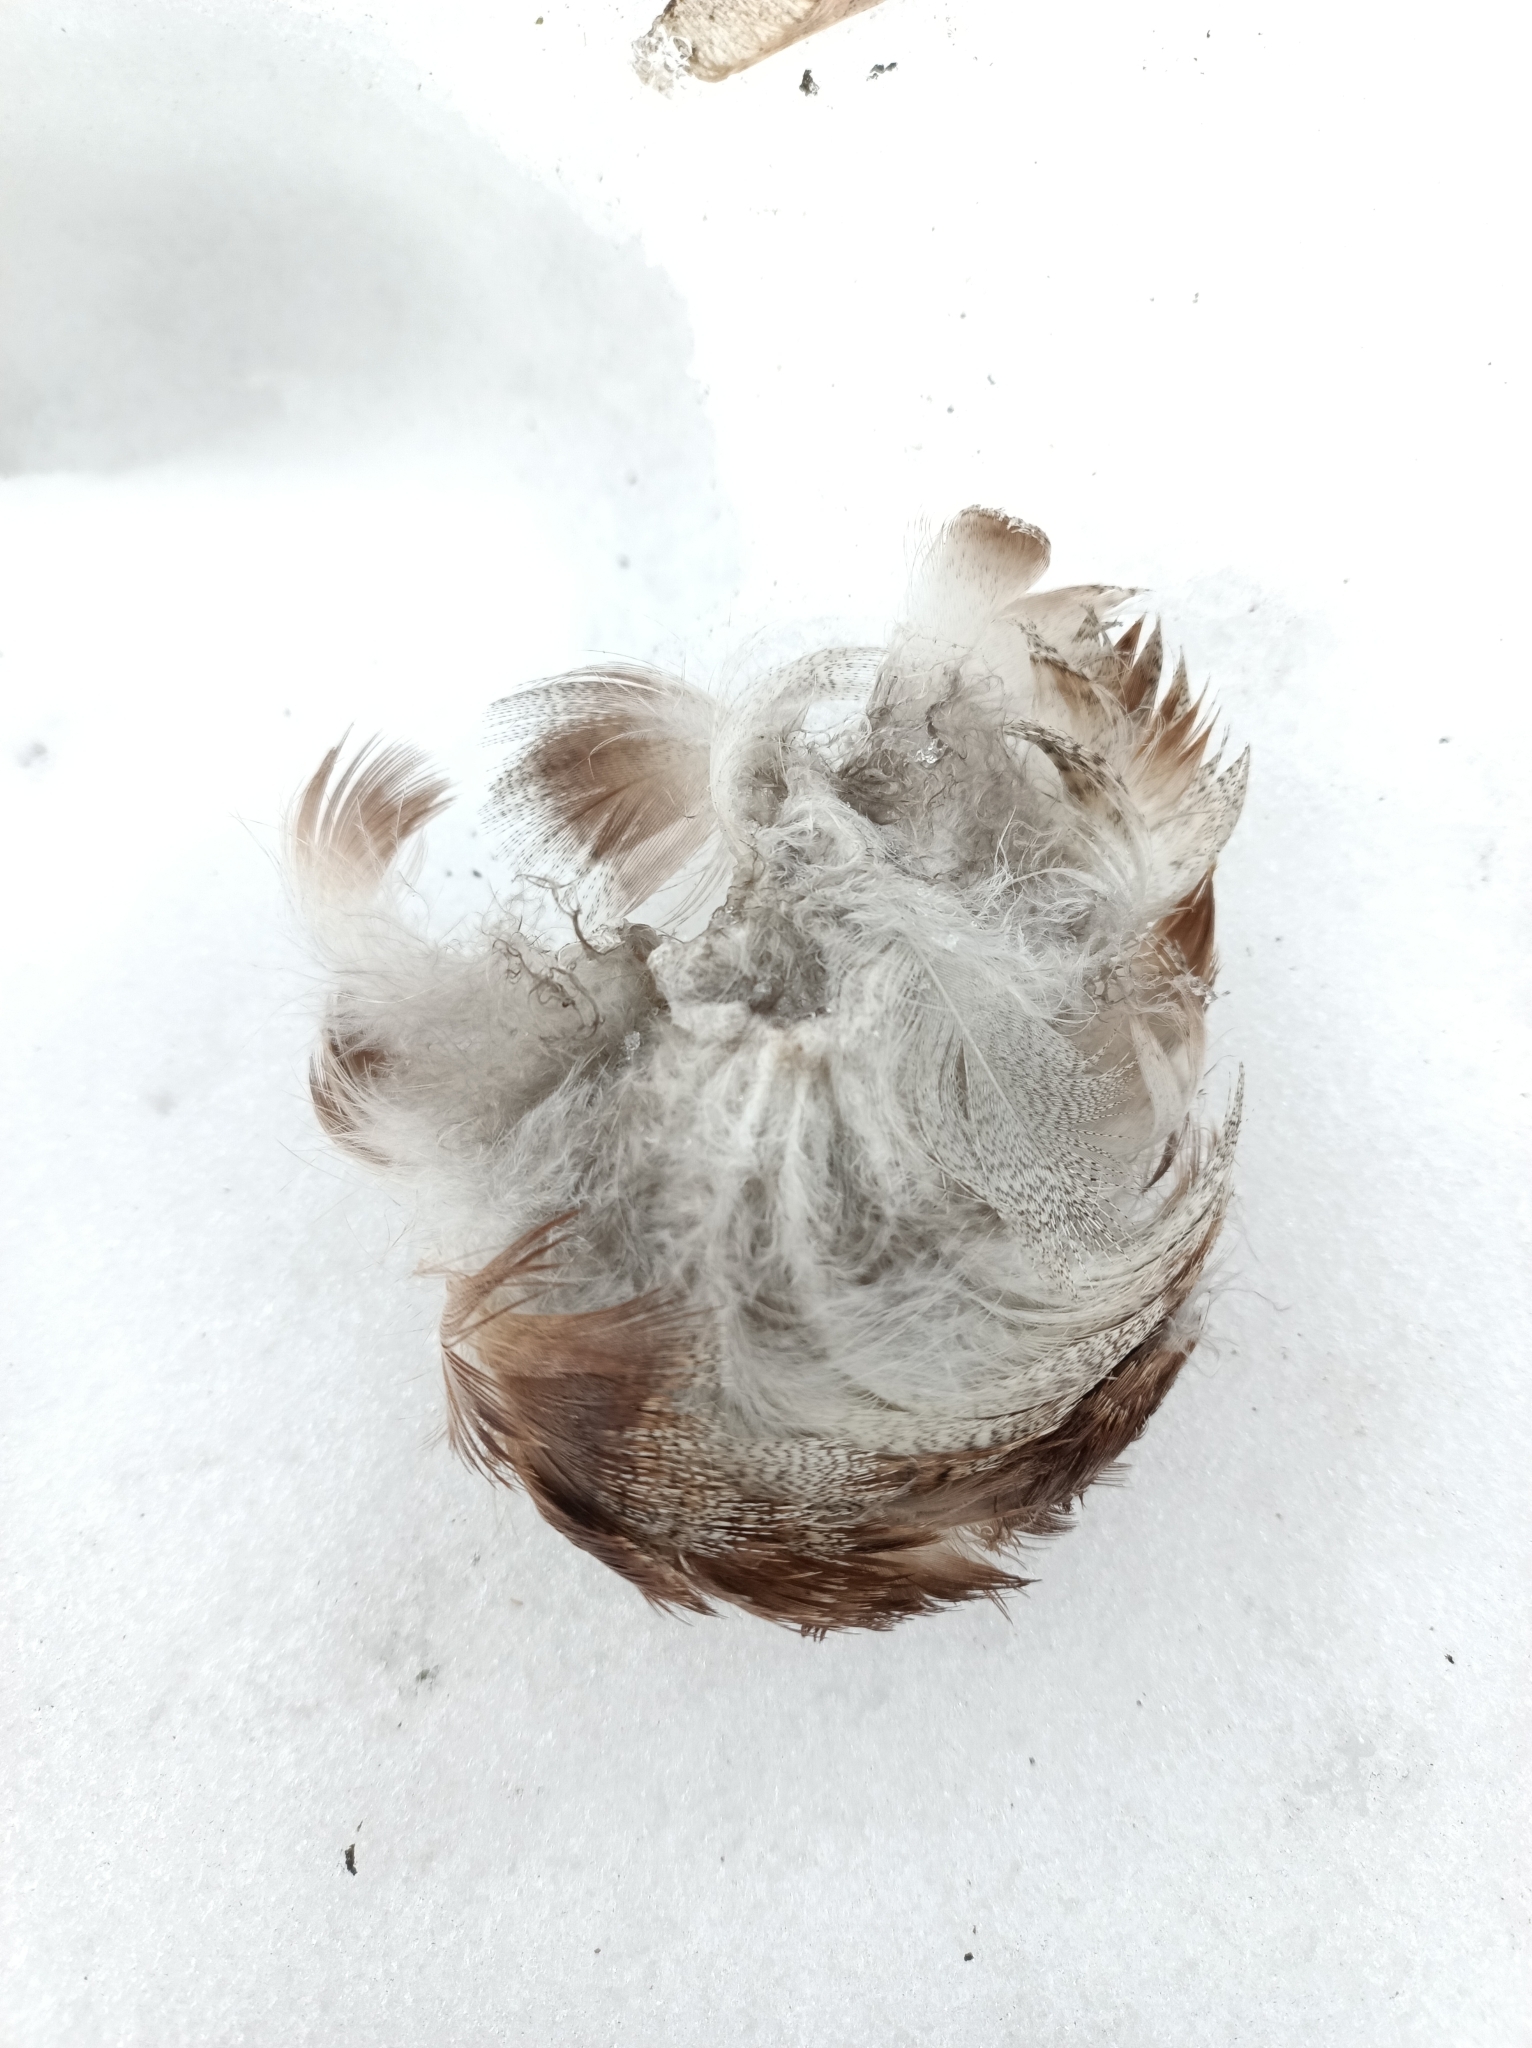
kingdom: Animalia
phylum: Chordata
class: Aves
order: Anseriformes
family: Anatidae
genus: Anas
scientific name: Anas platyrhynchos
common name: Mallard
